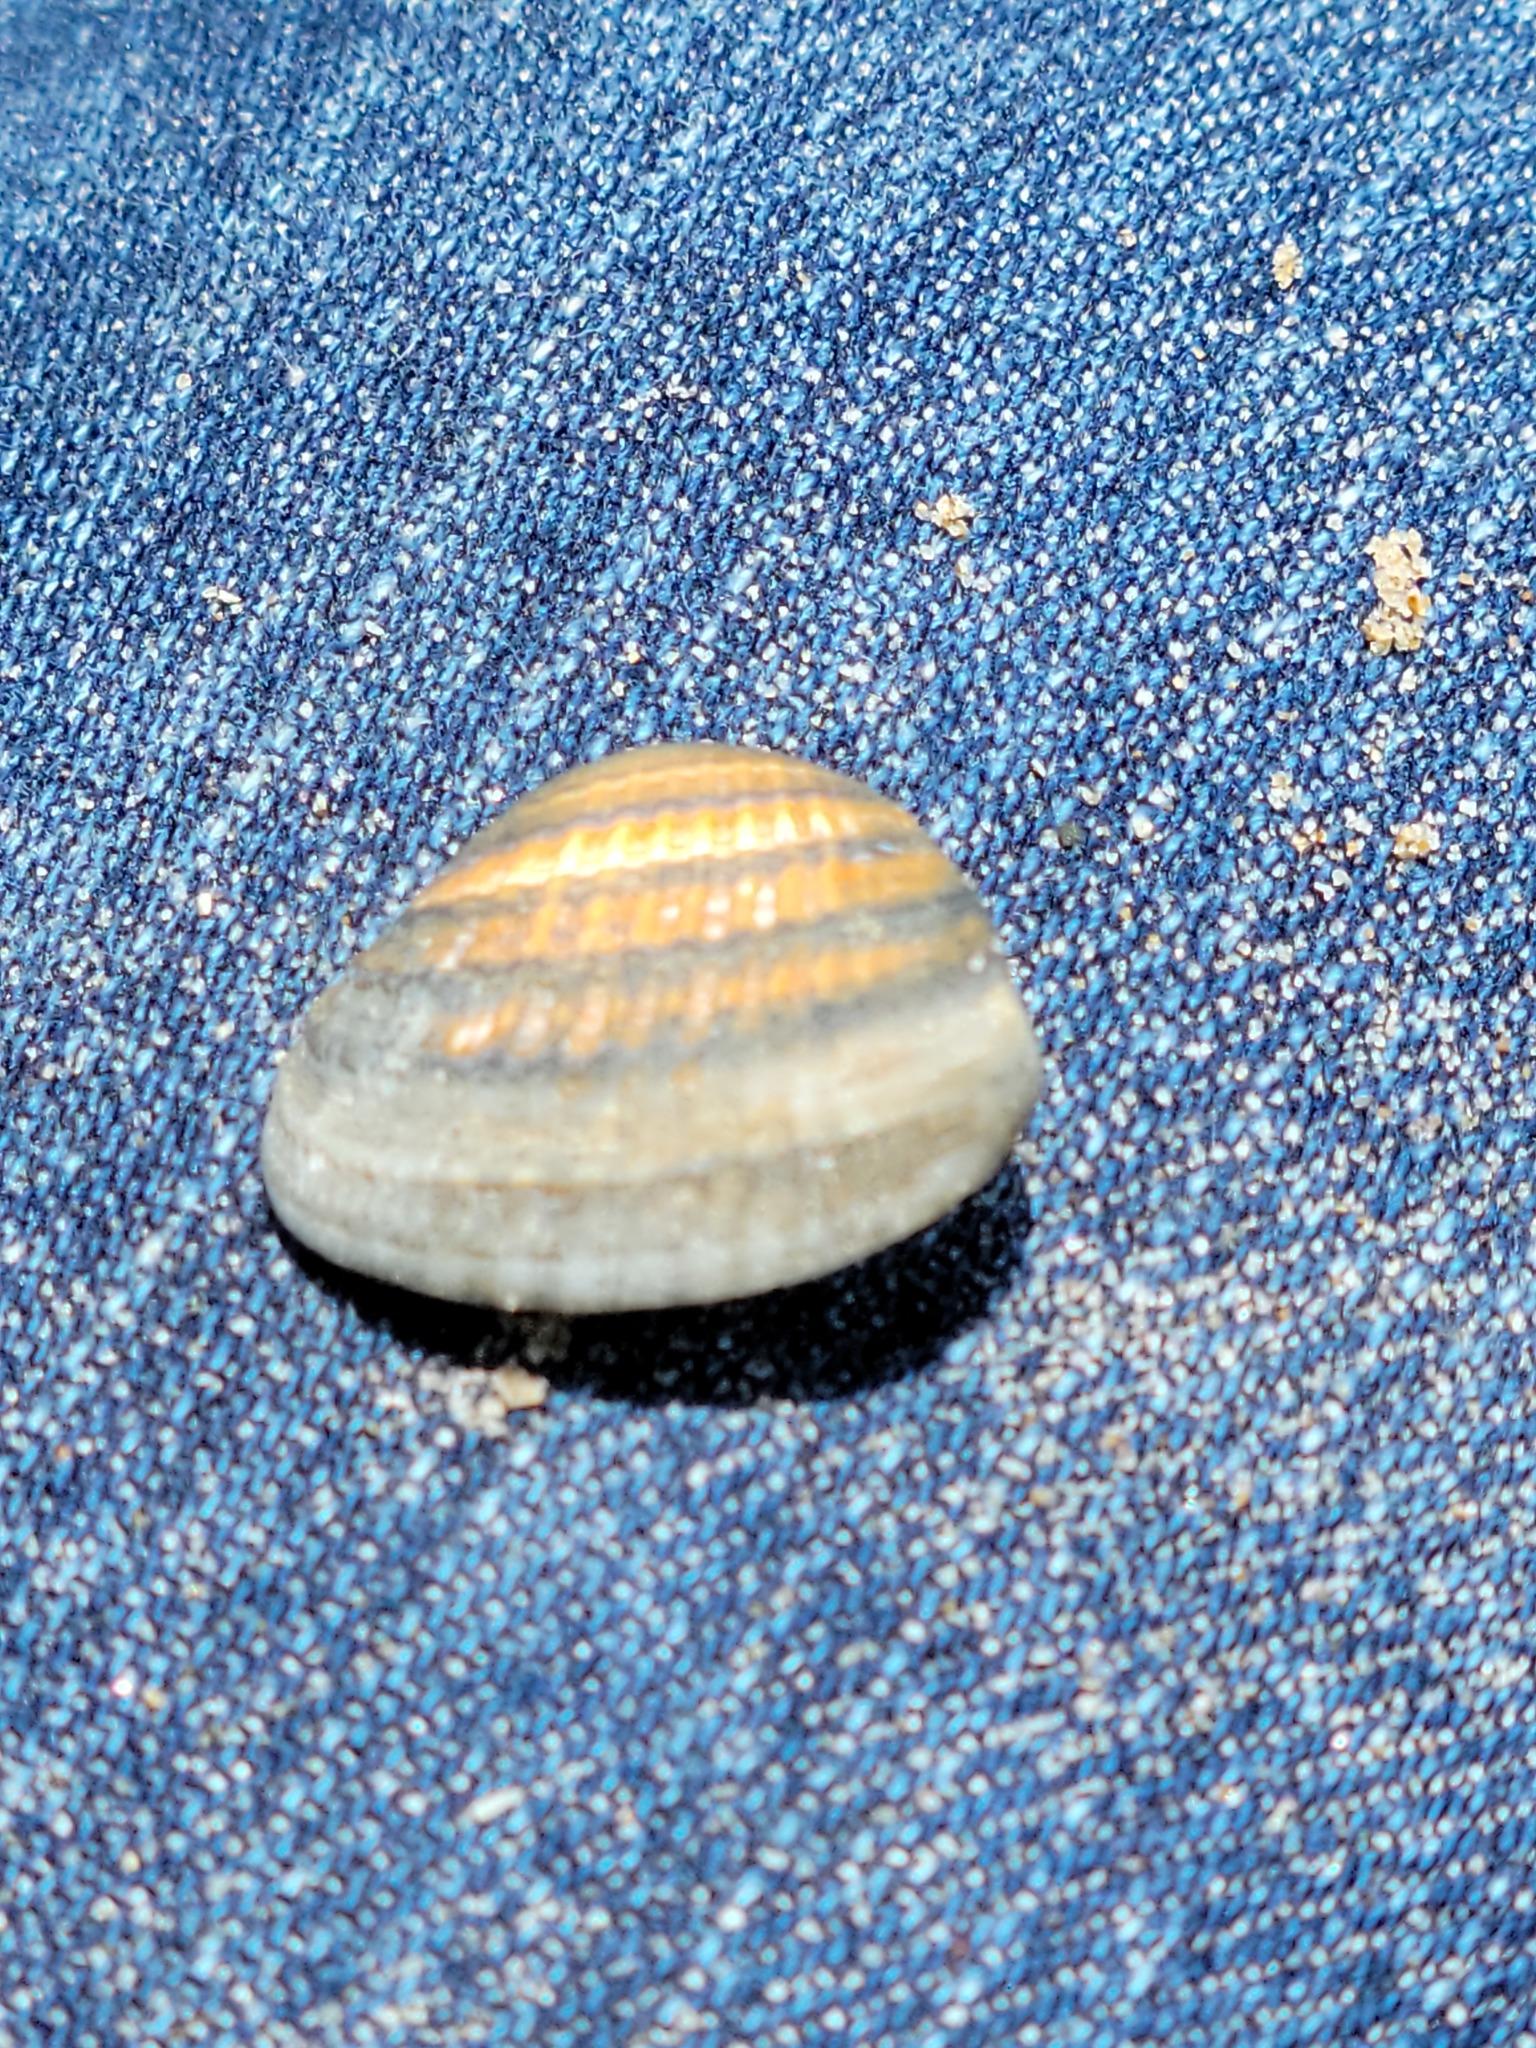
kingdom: Animalia
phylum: Mollusca
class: Bivalvia
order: Venerida
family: Veneridae
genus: Chione
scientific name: Chione elevata
